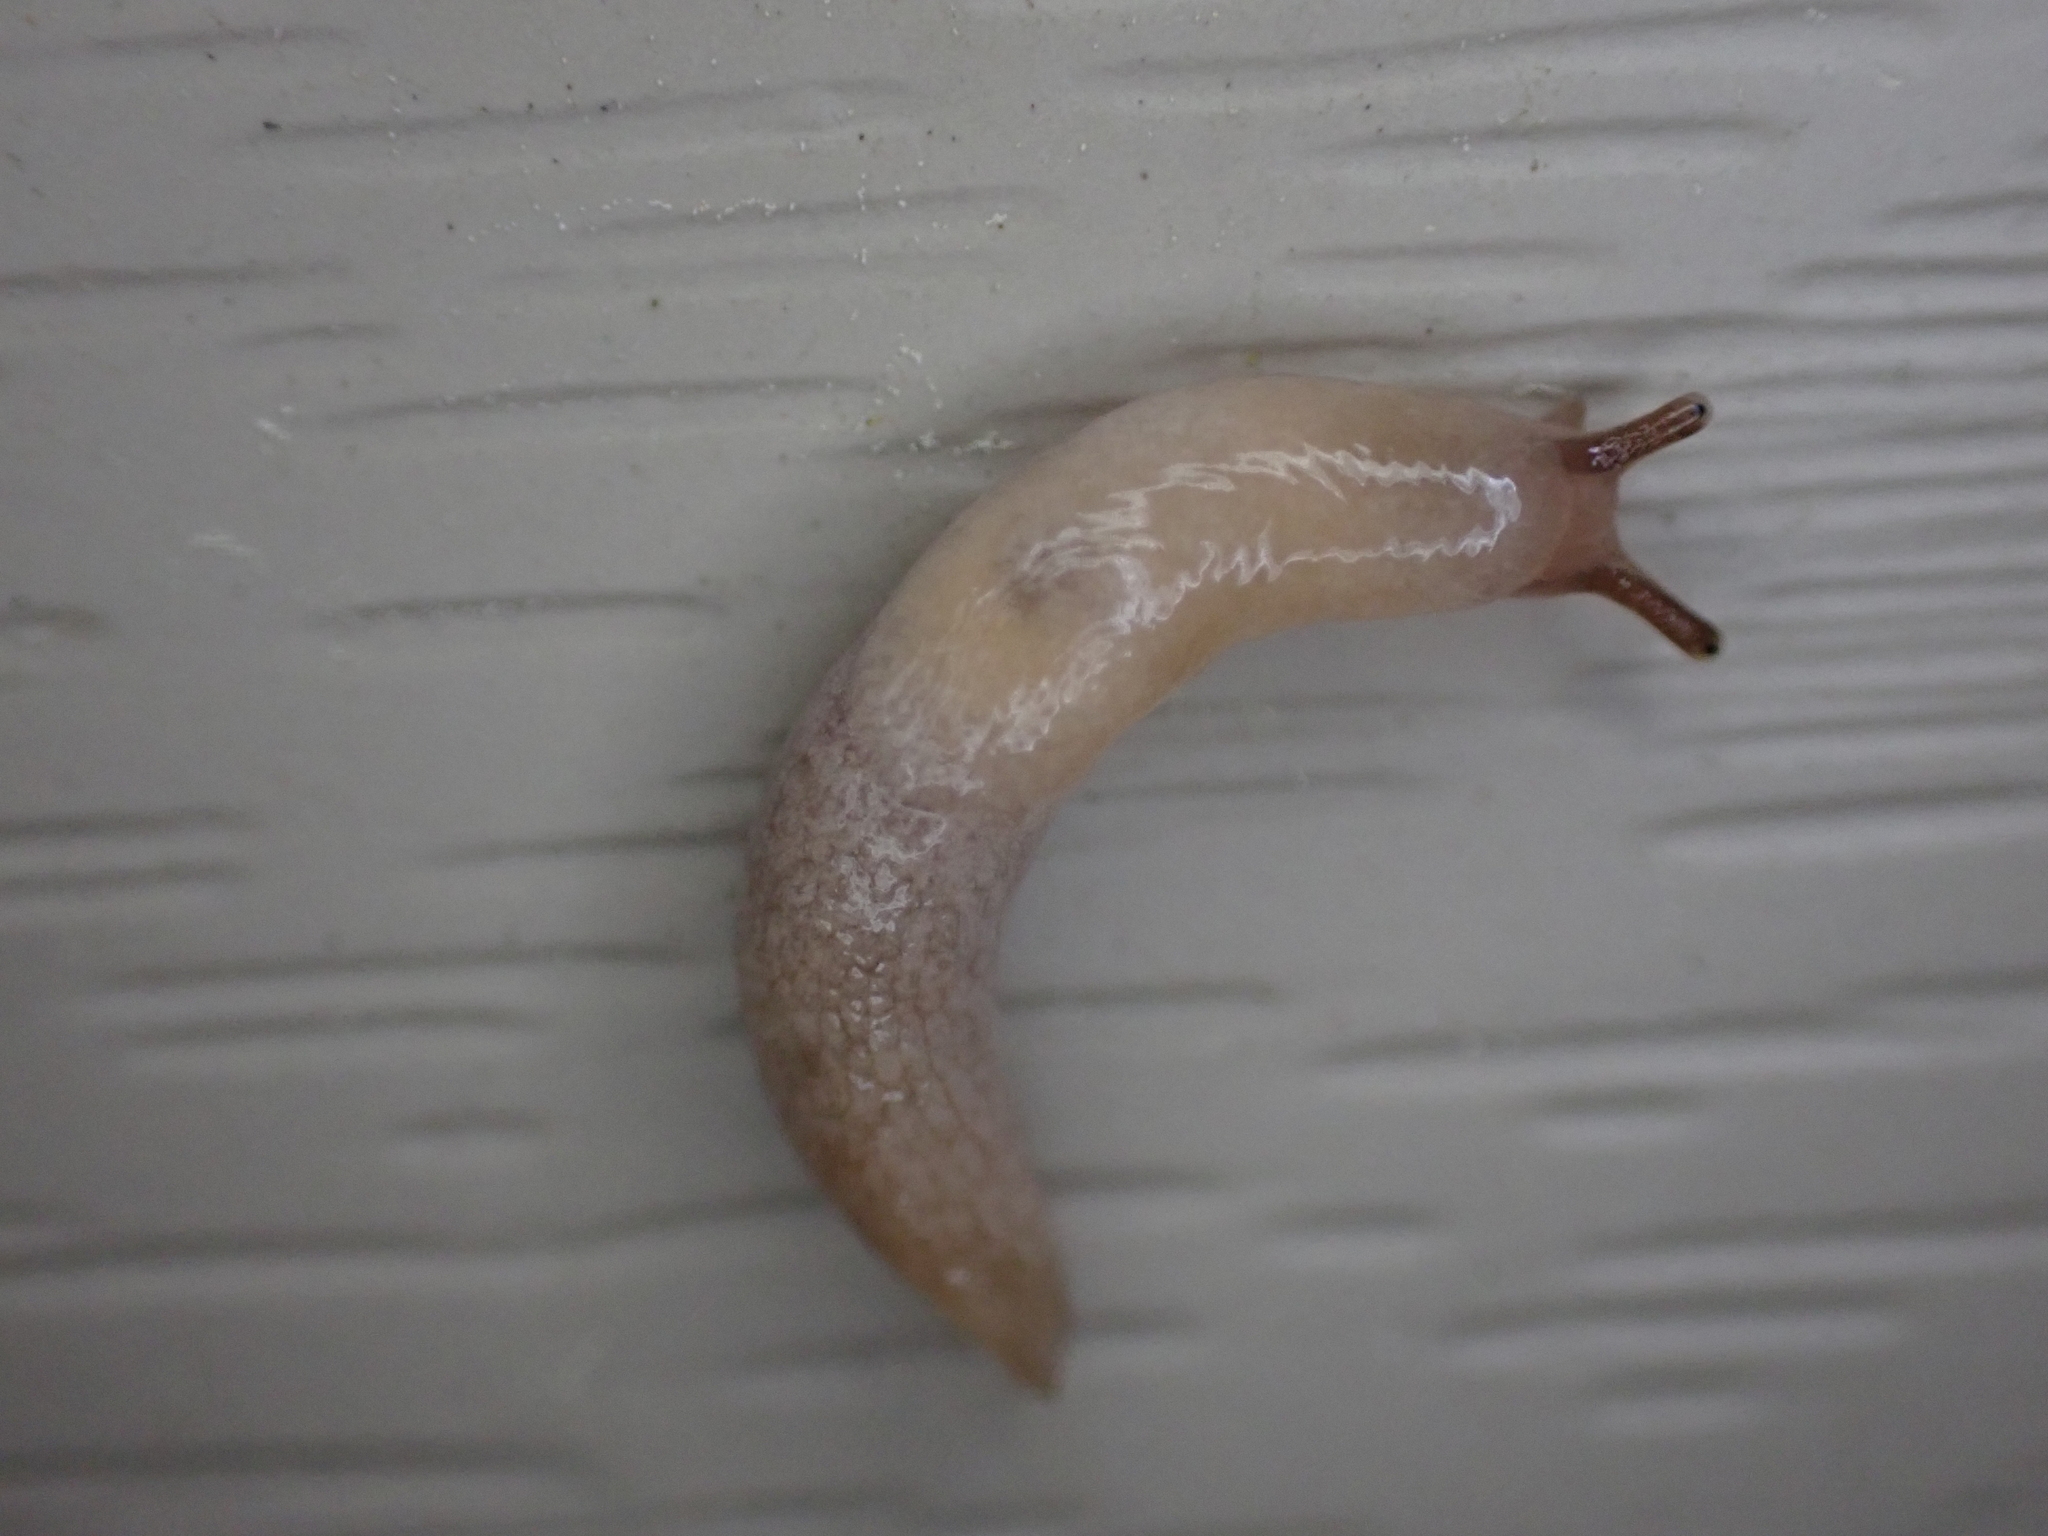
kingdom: Animalia
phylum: Mollusca
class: Gastropoda
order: Stylommatophora
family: Agriolimacidae
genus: Deroceras
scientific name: Deroceras reticulatum
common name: Gray field slug
